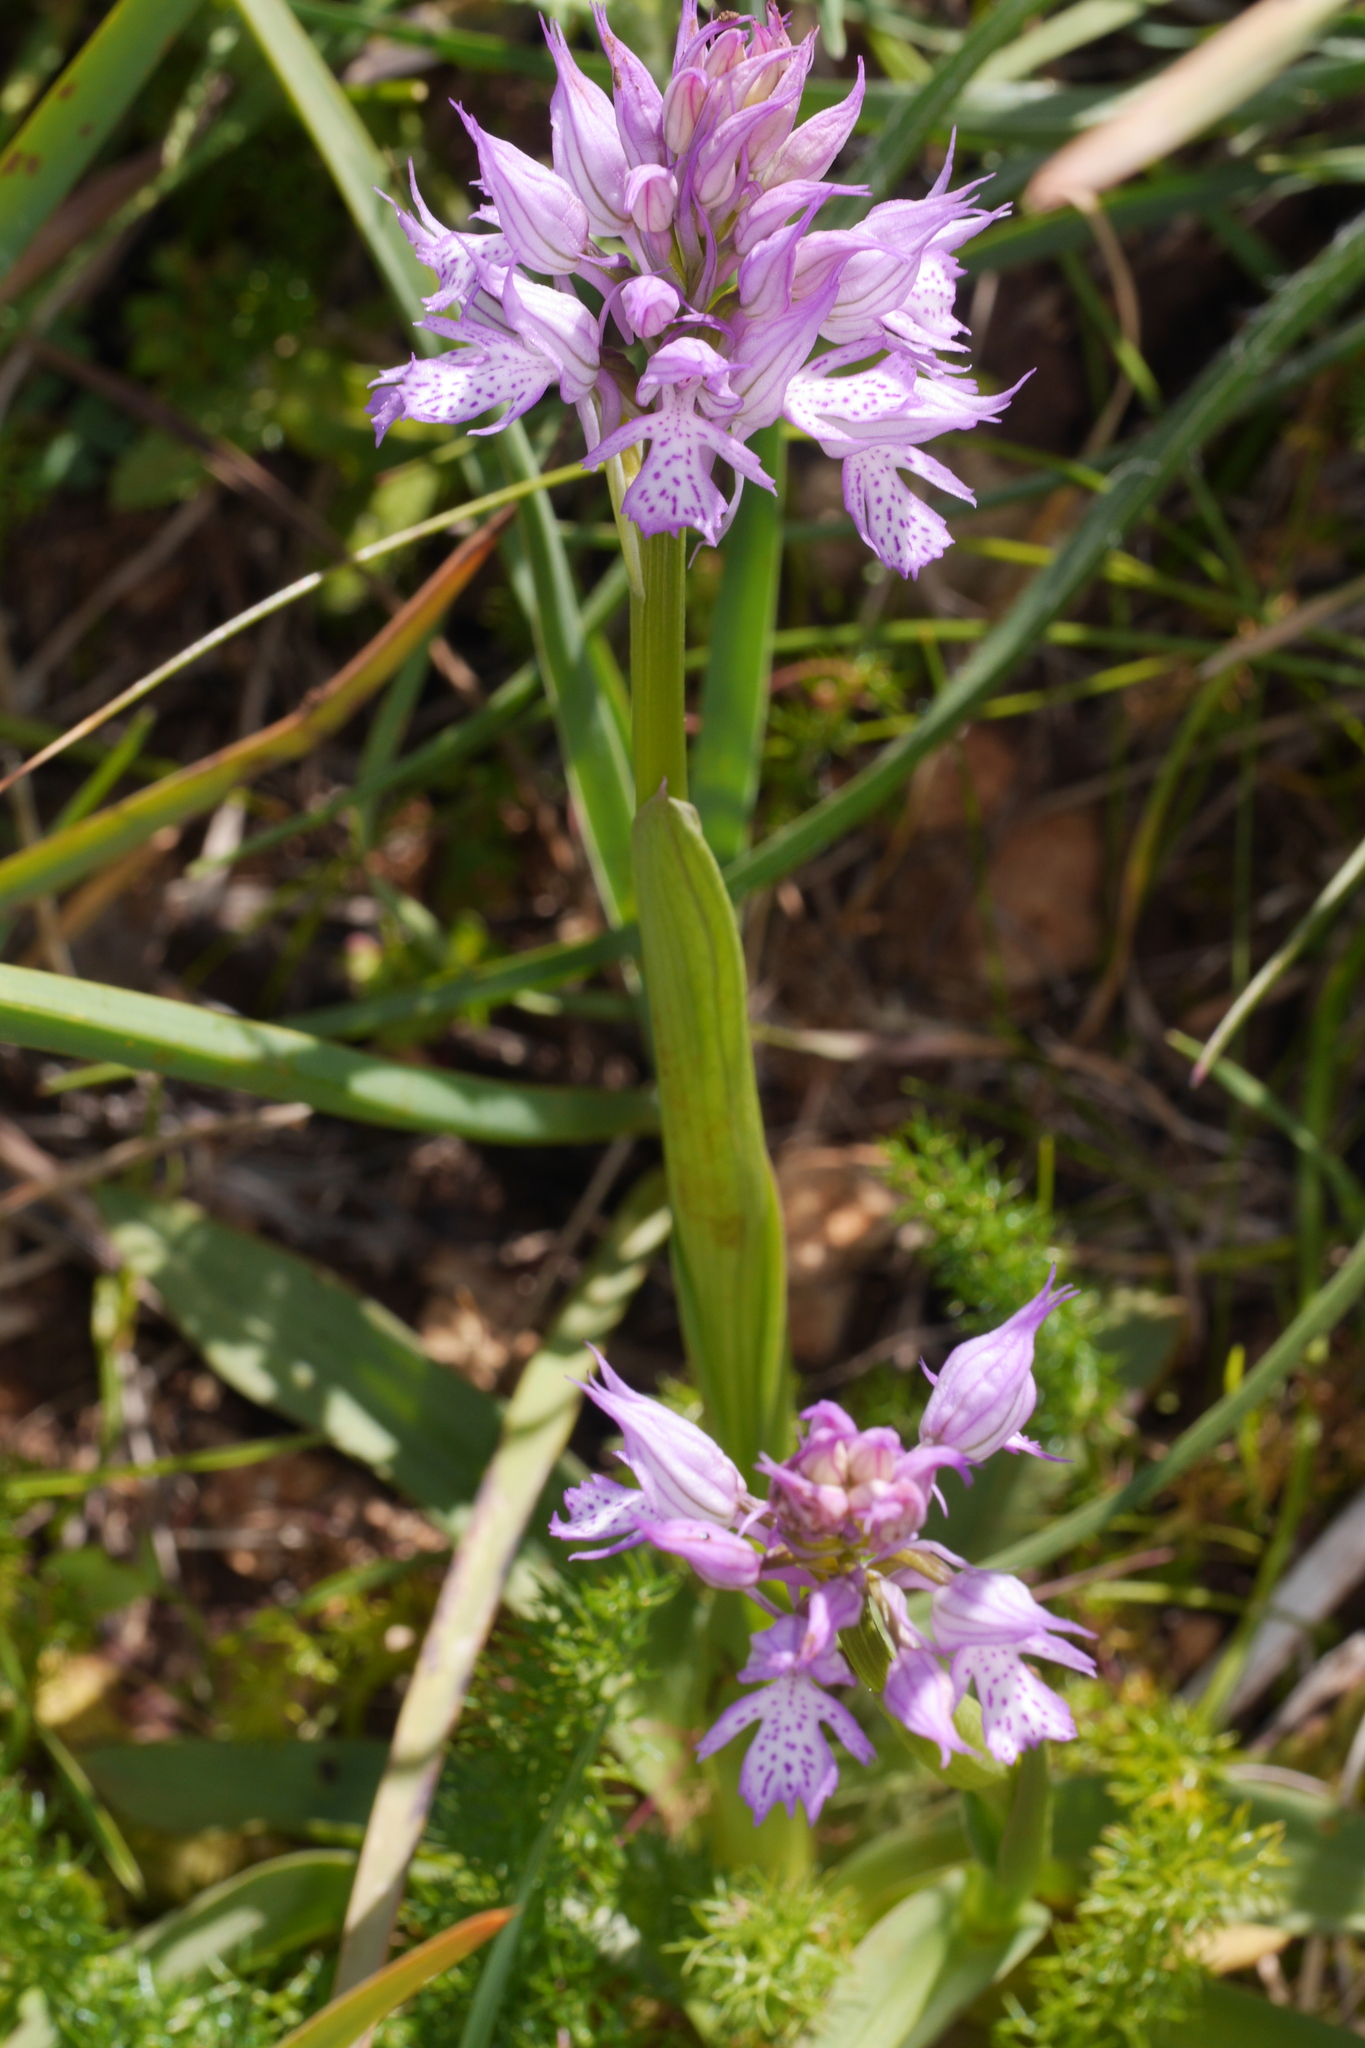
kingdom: Plantae
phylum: Tracheophyta
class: Liliopsida
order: Asparagales
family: Orchidaceae
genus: Neotinea
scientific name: Neotinea tridentata
